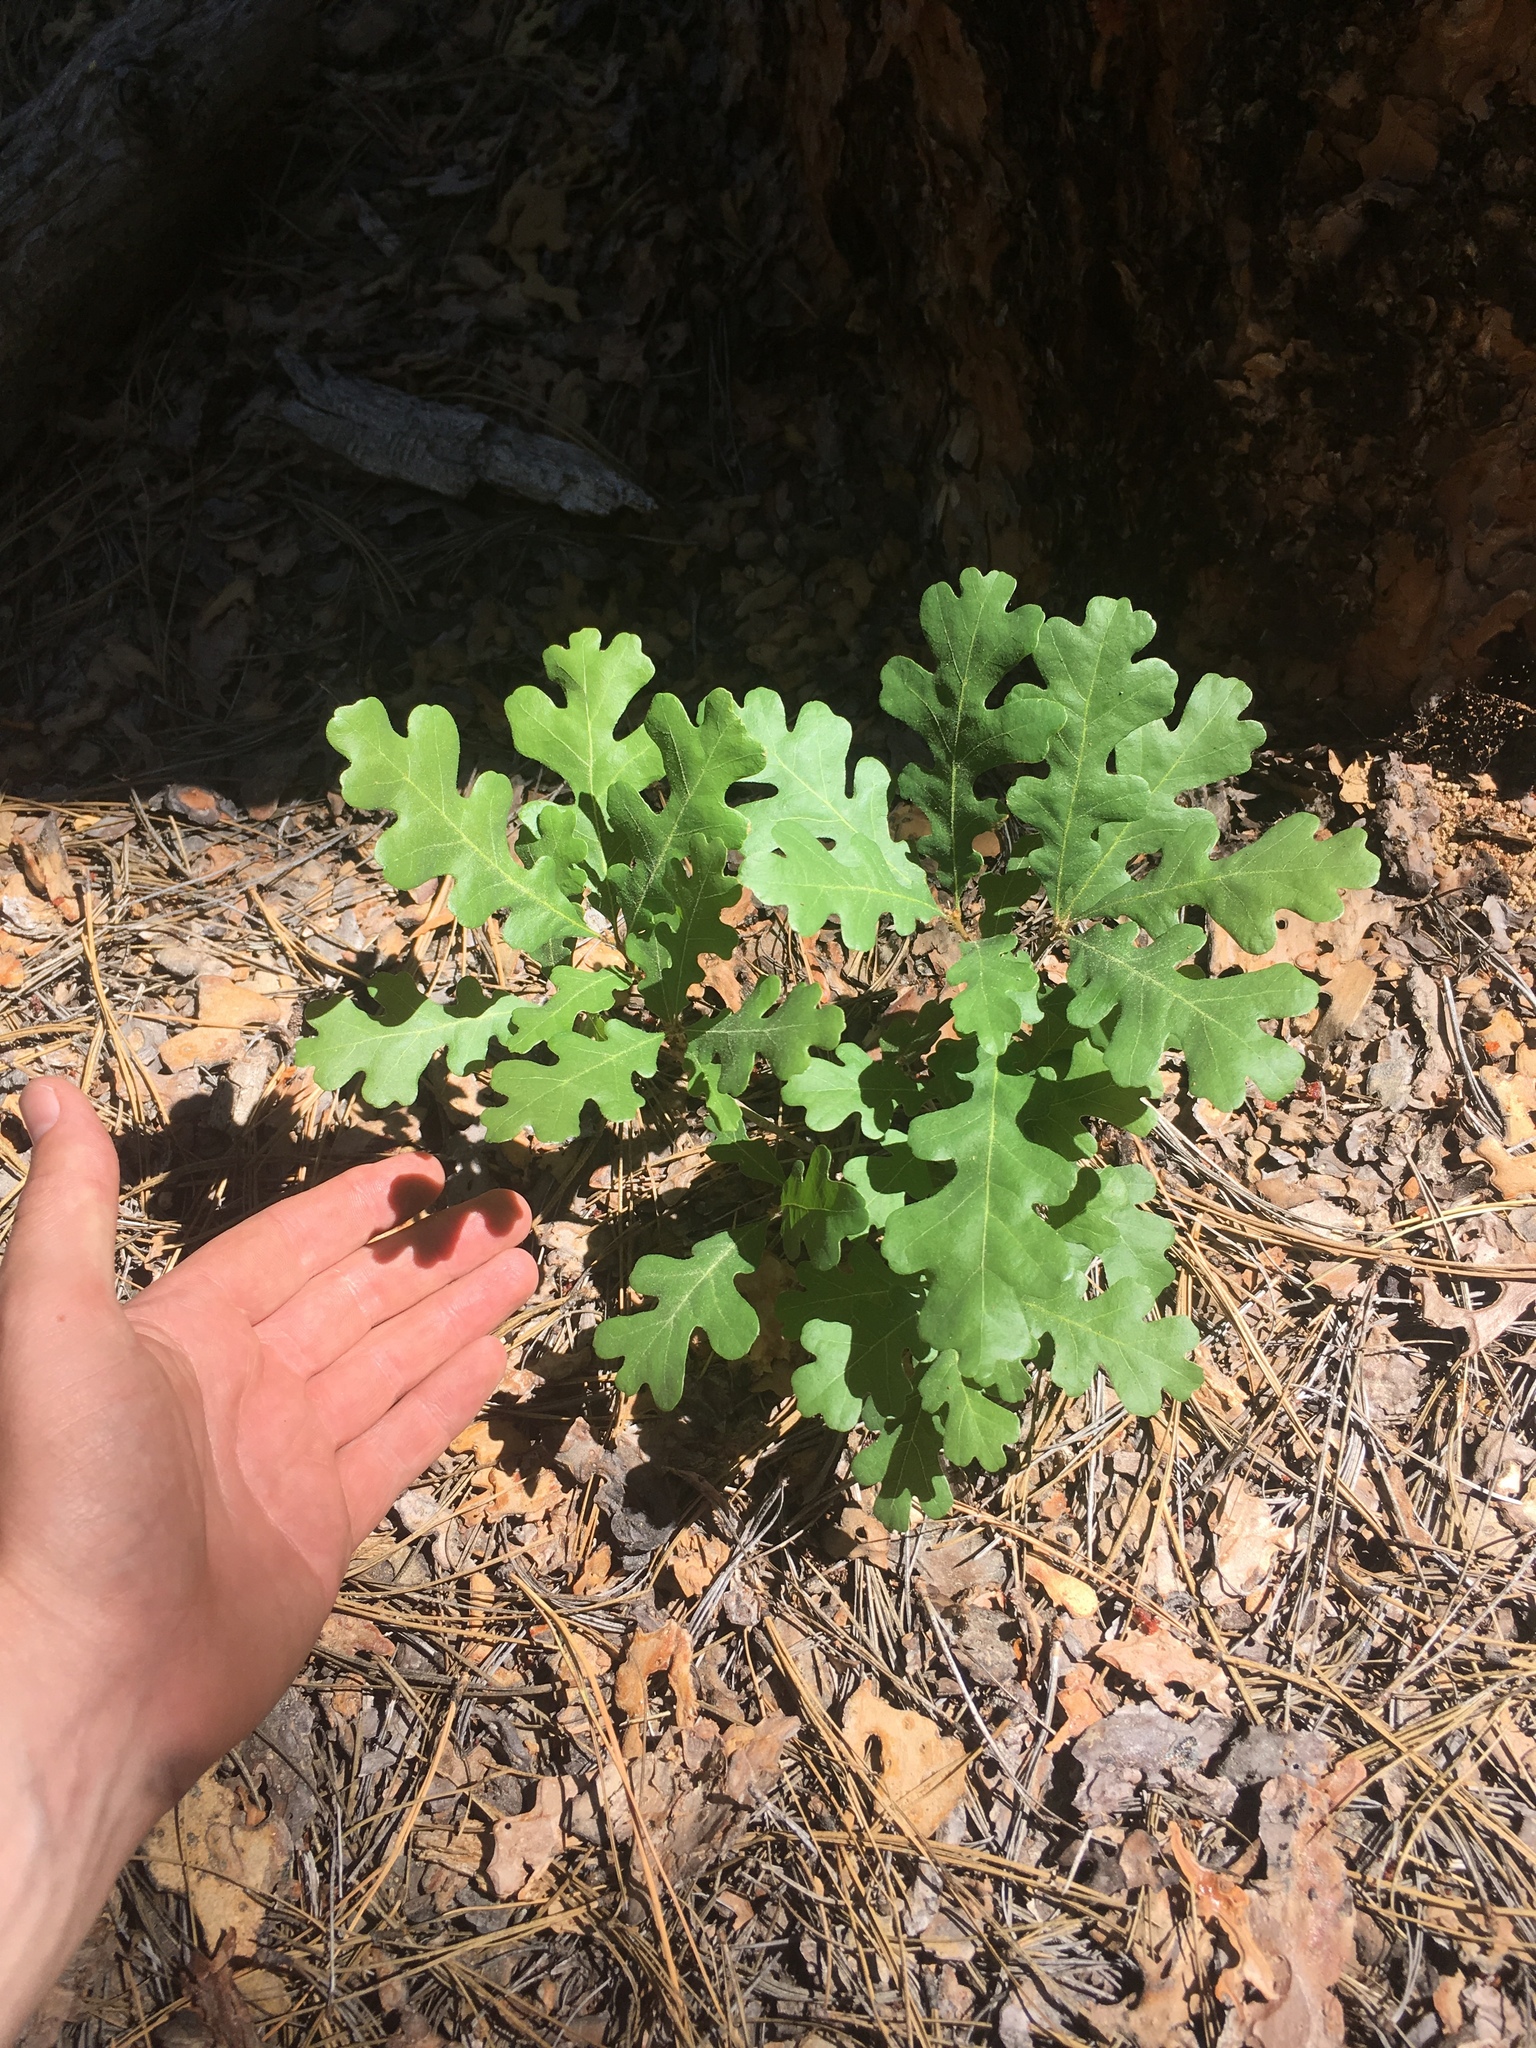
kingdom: Plantae
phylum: Tracheophyta
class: Magnoliopsida
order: Fagales
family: Fagaceae
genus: Quercus
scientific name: Quercus gambelii
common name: Gambel oak
